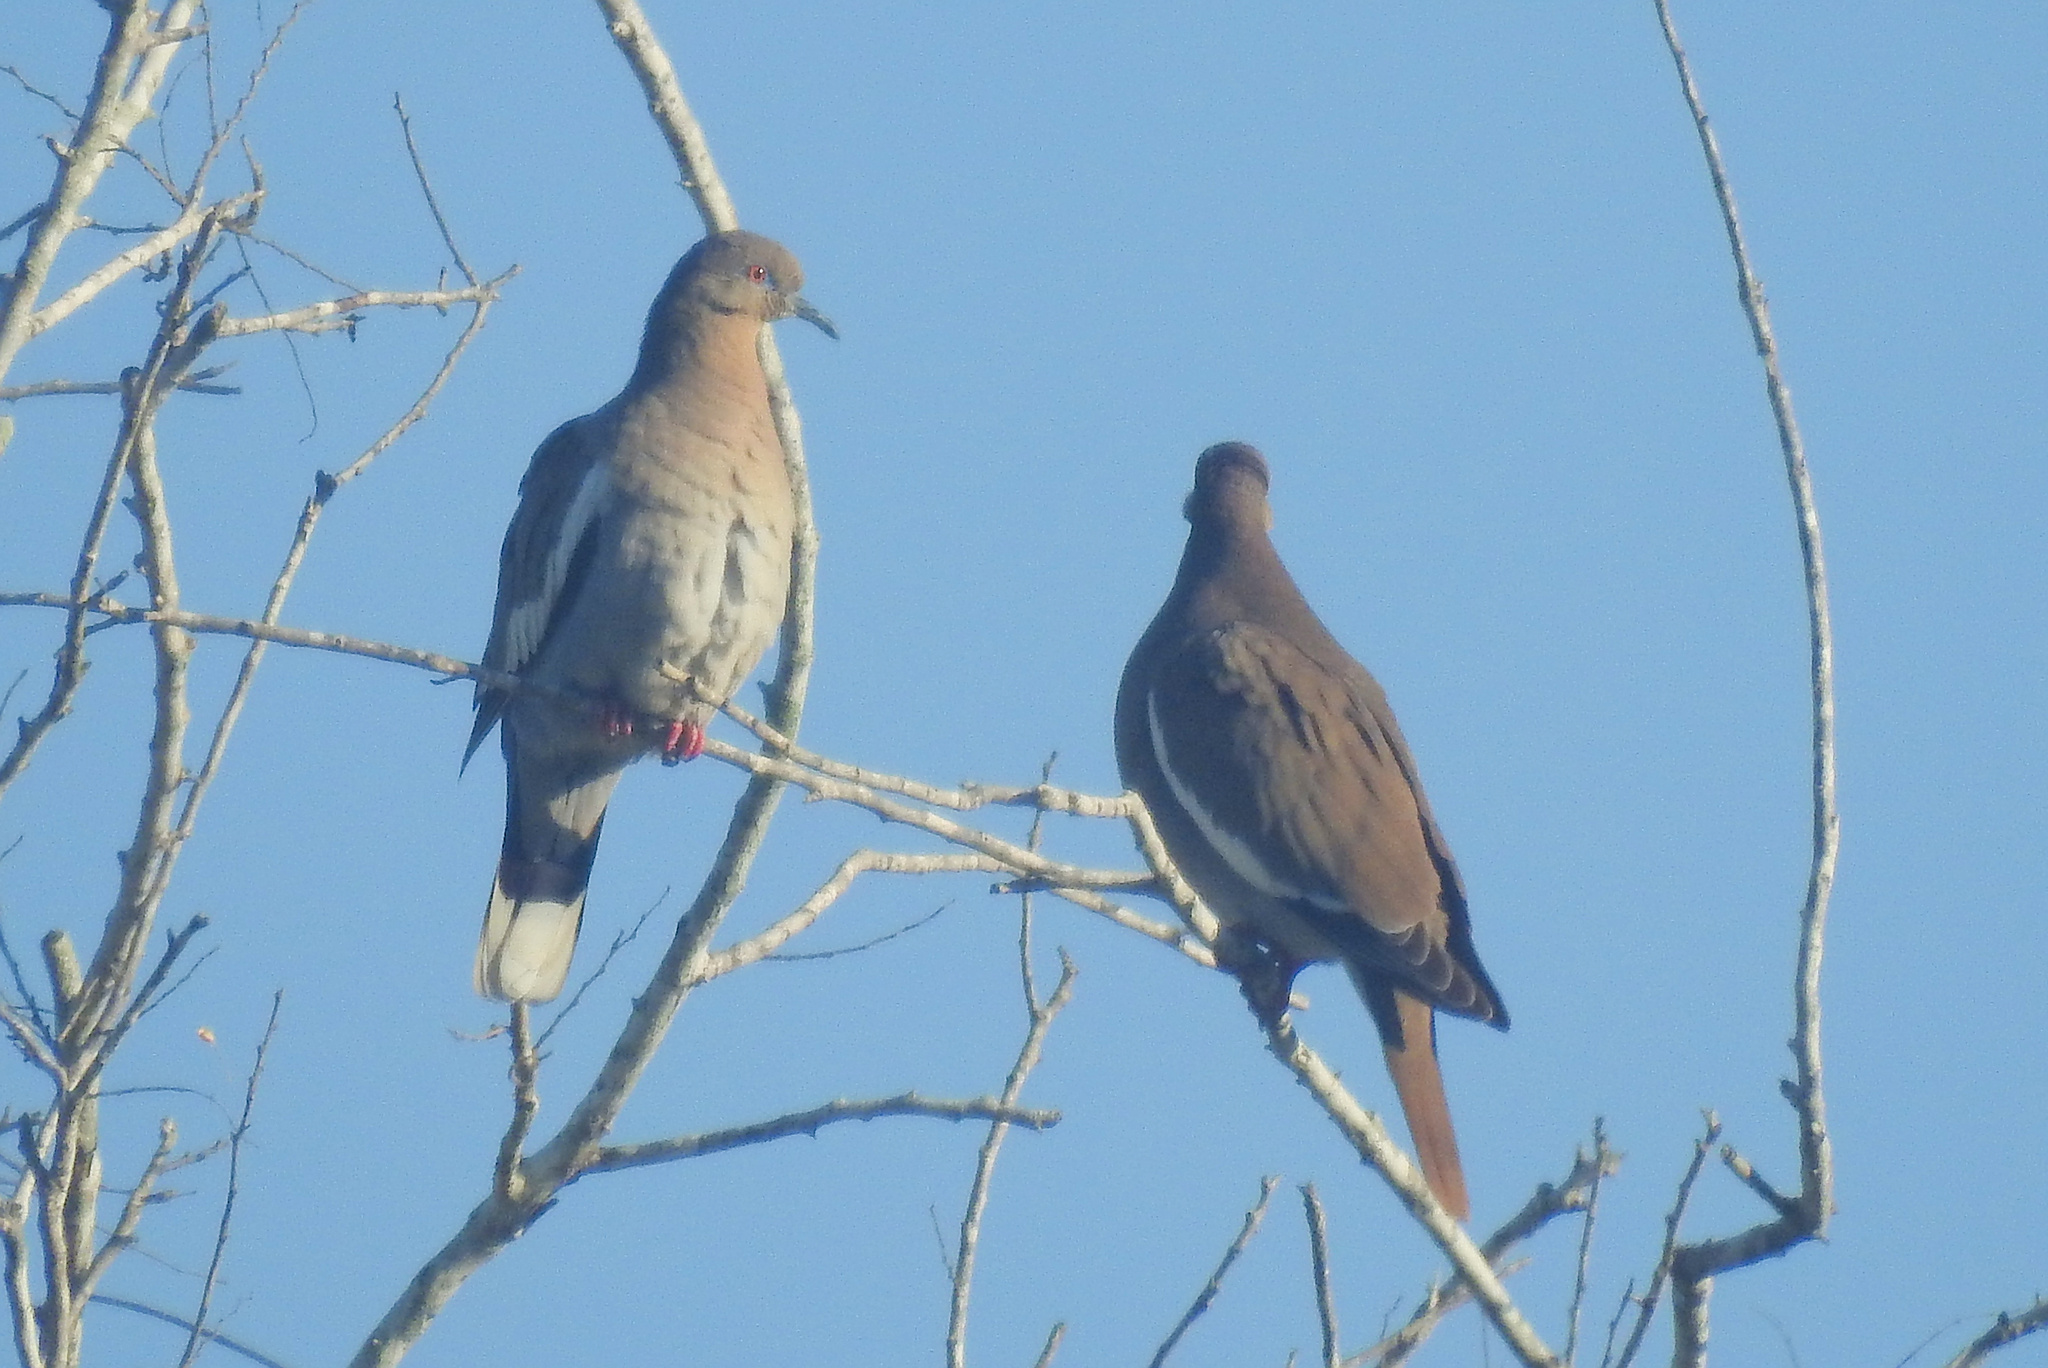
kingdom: Animalia
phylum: Chordata
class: Aves
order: Columbiformes
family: Columbidae
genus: Zenaida
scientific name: Zenaida asiatica
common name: White-winged dove
